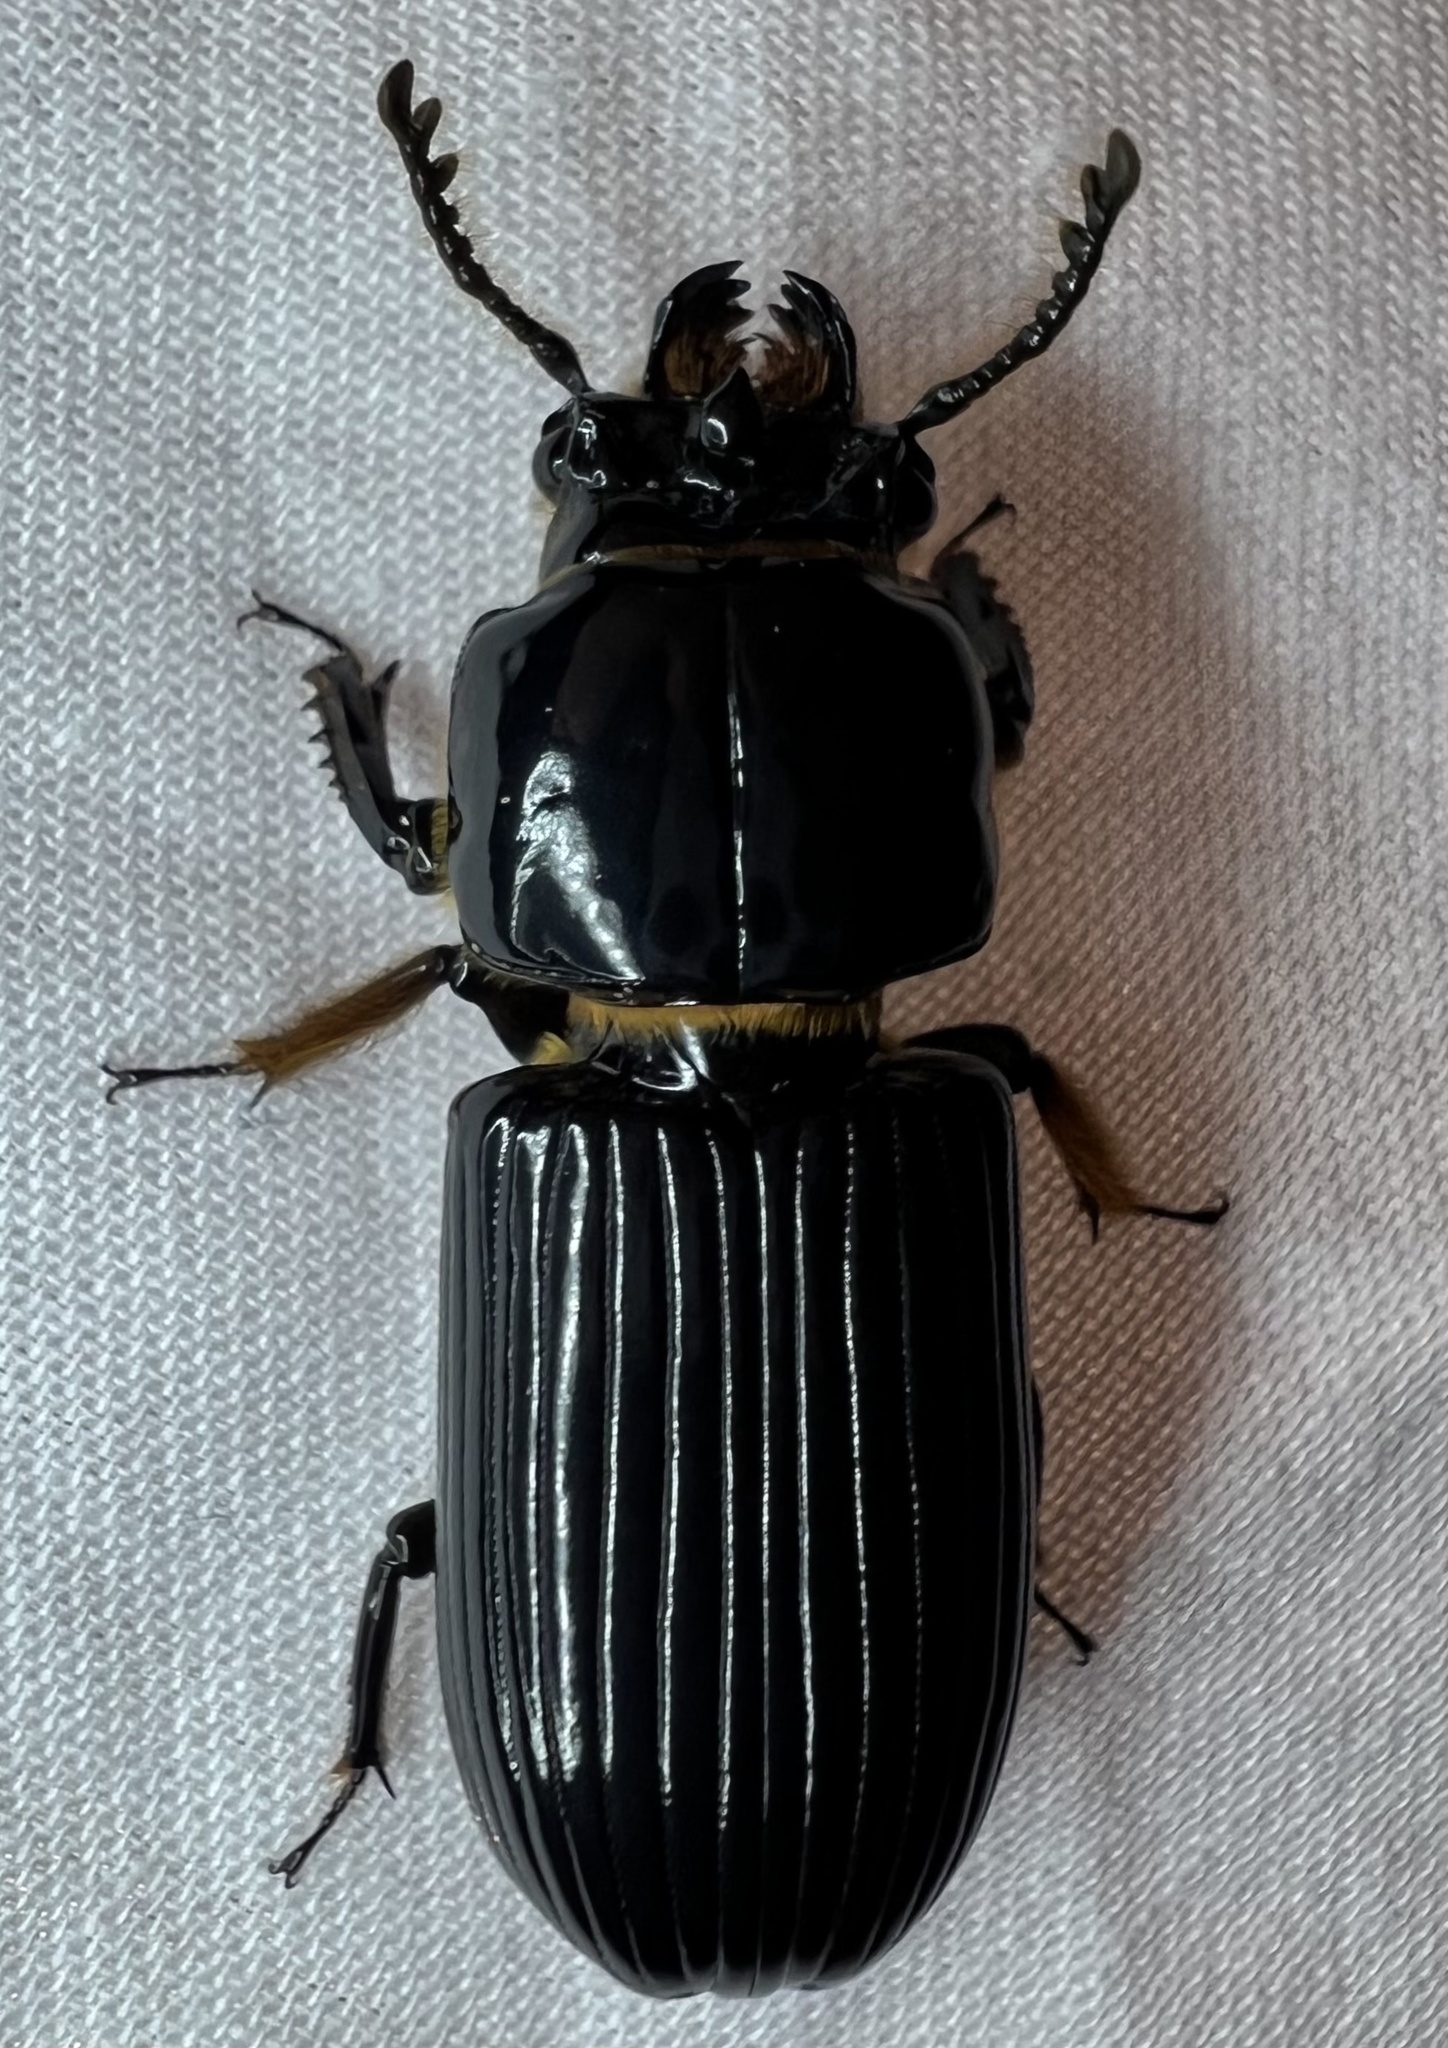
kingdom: Animalia
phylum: Arthropoda
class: Insecta
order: Coleoptera
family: Passalidae
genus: Odontotaenius
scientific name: Odontotaenius disjunctus
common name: Patent leather beetle
